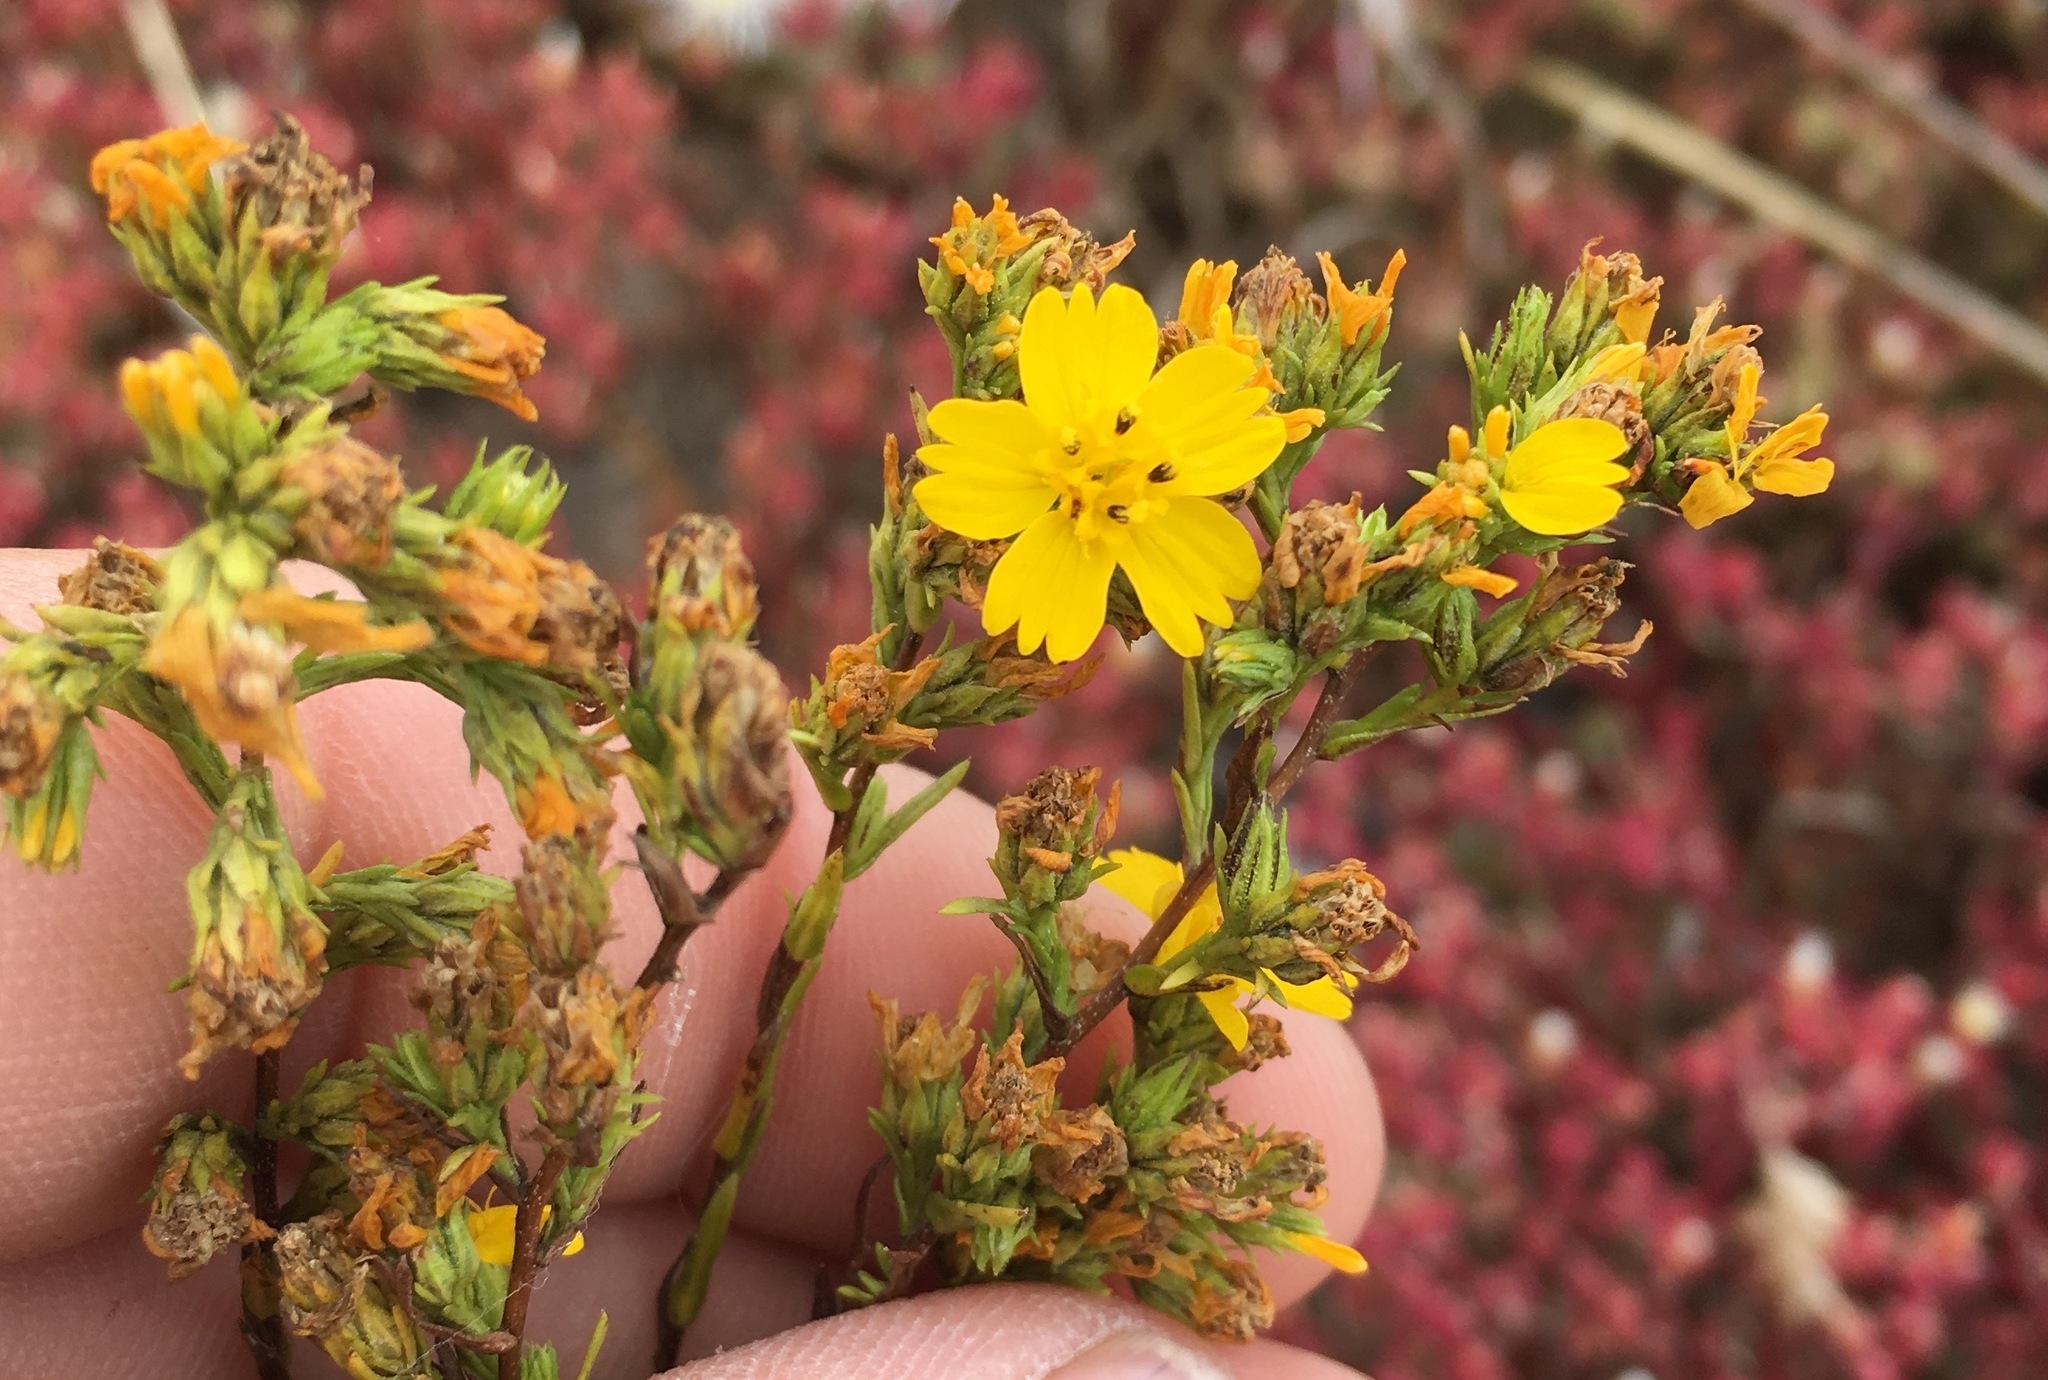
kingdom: Plantae
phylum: Tracheophyta
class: Magnoliopsida
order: Asterales
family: Asteraceae
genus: Deinandra
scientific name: Deinandra fasciculata
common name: Clustered tarweed
